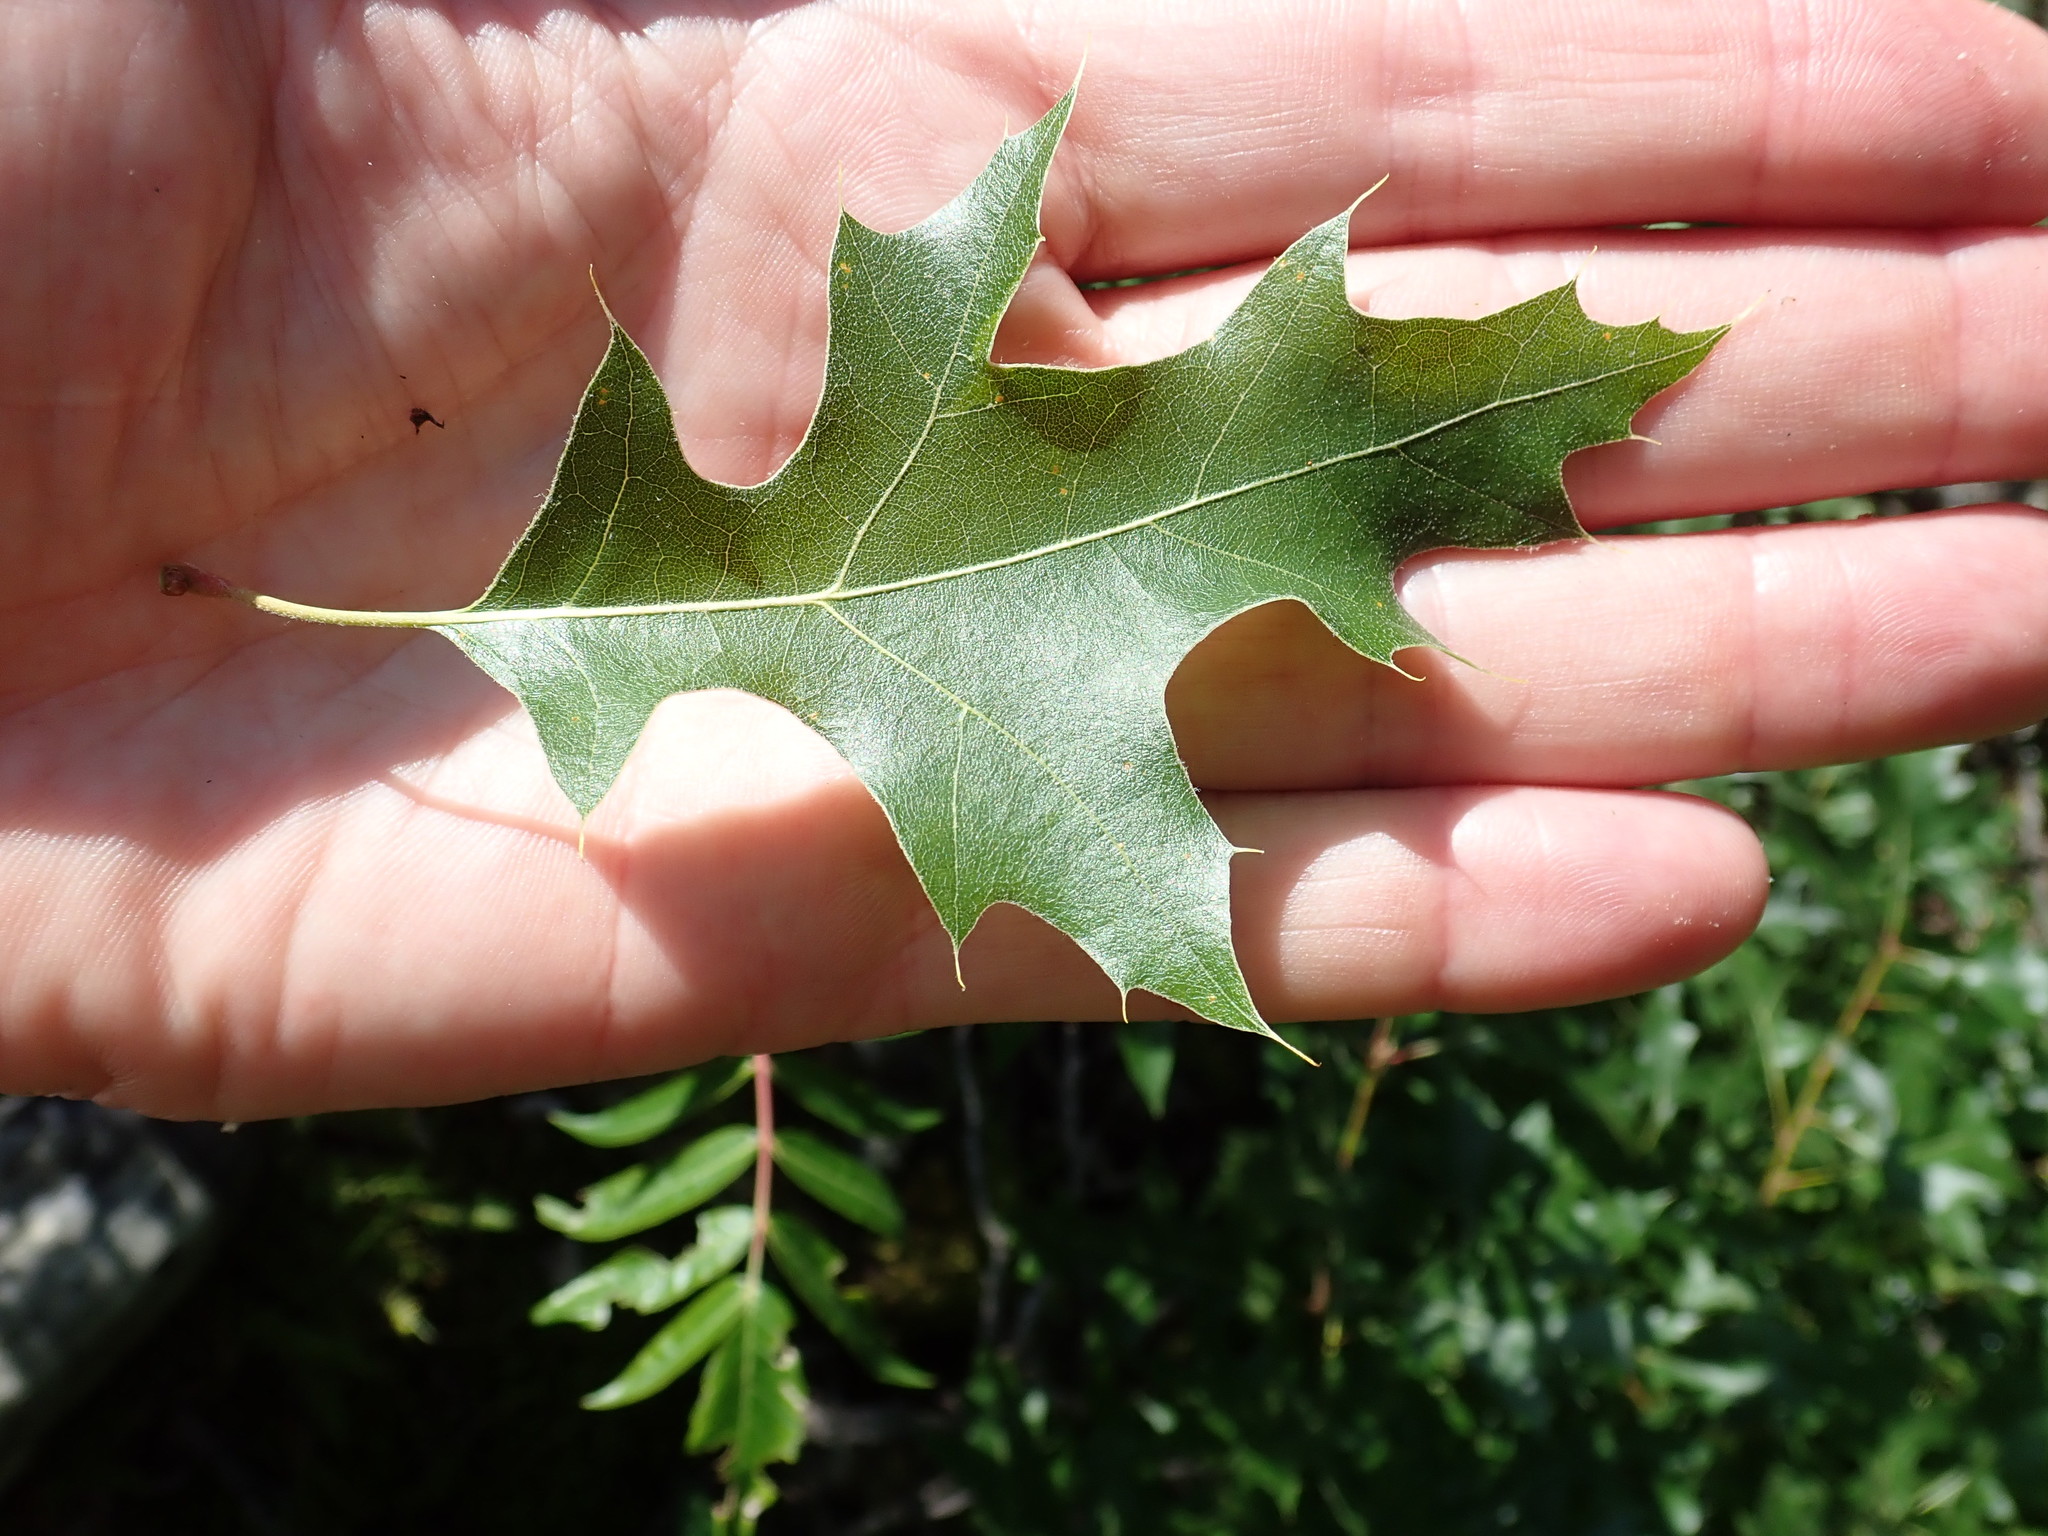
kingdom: Plantae
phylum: Tracheophyta
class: Magnoliopsida
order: Fagales
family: Fagaceae
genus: Quercus
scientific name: Quercus ellipsoidalis
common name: Hill's oak
